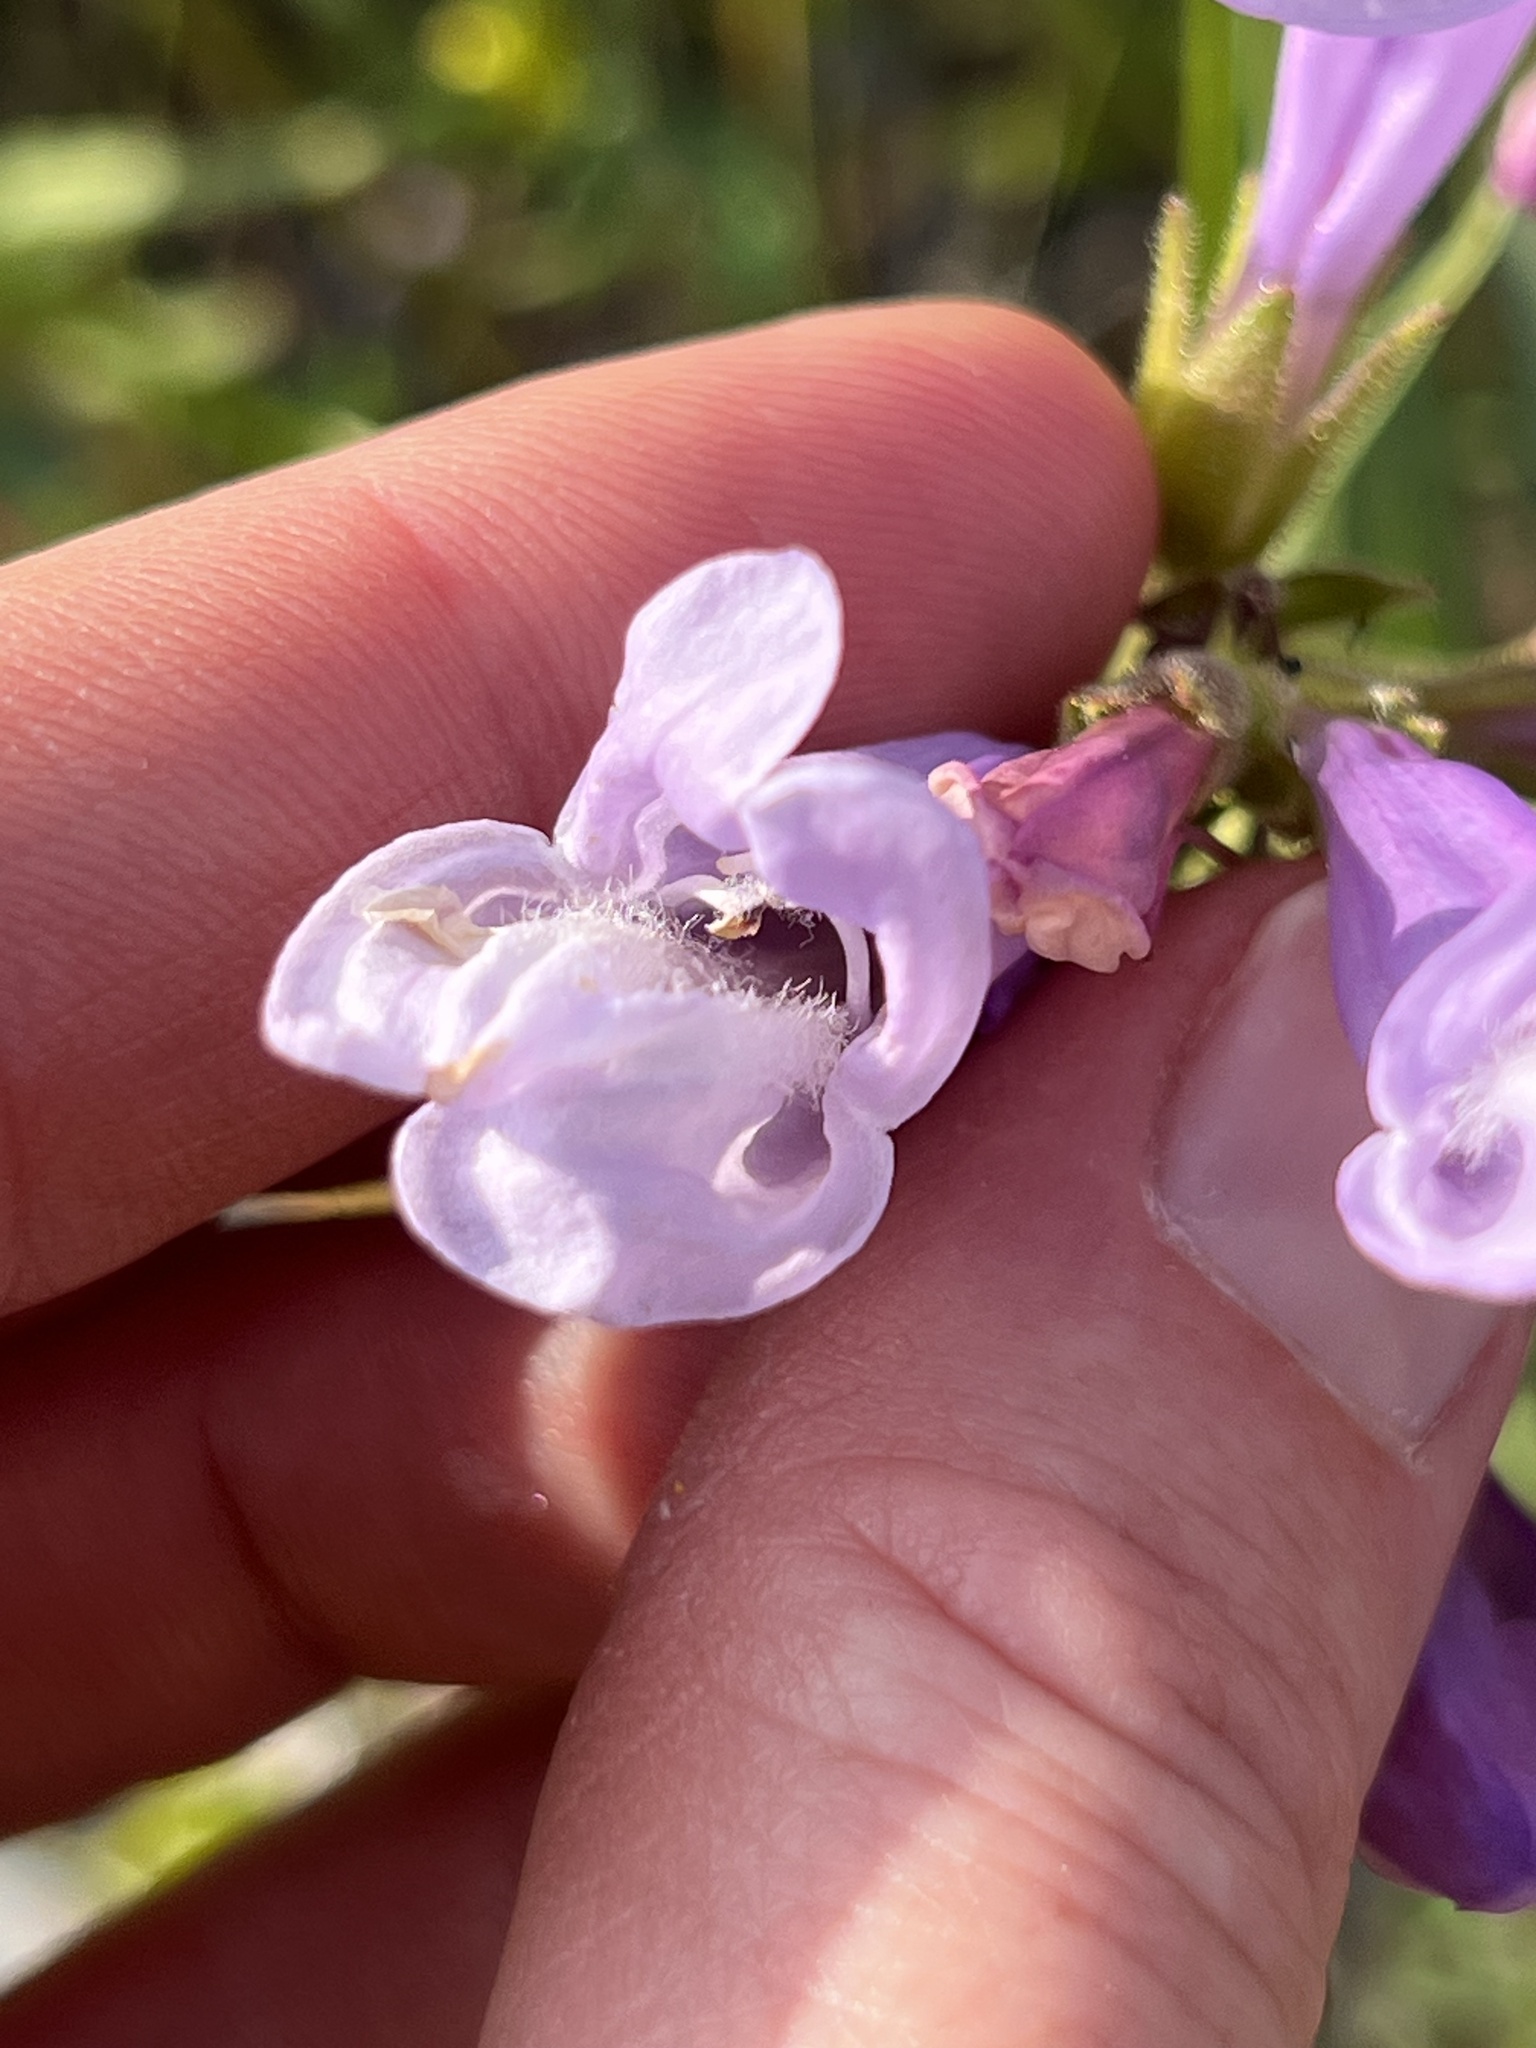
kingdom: Plantae
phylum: Tracheophyta
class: Magnoliopsida
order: Lamiales
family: Plantaginaceae
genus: Penstemon
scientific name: Penstemon lyalli
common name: Lyall's beardtongue
